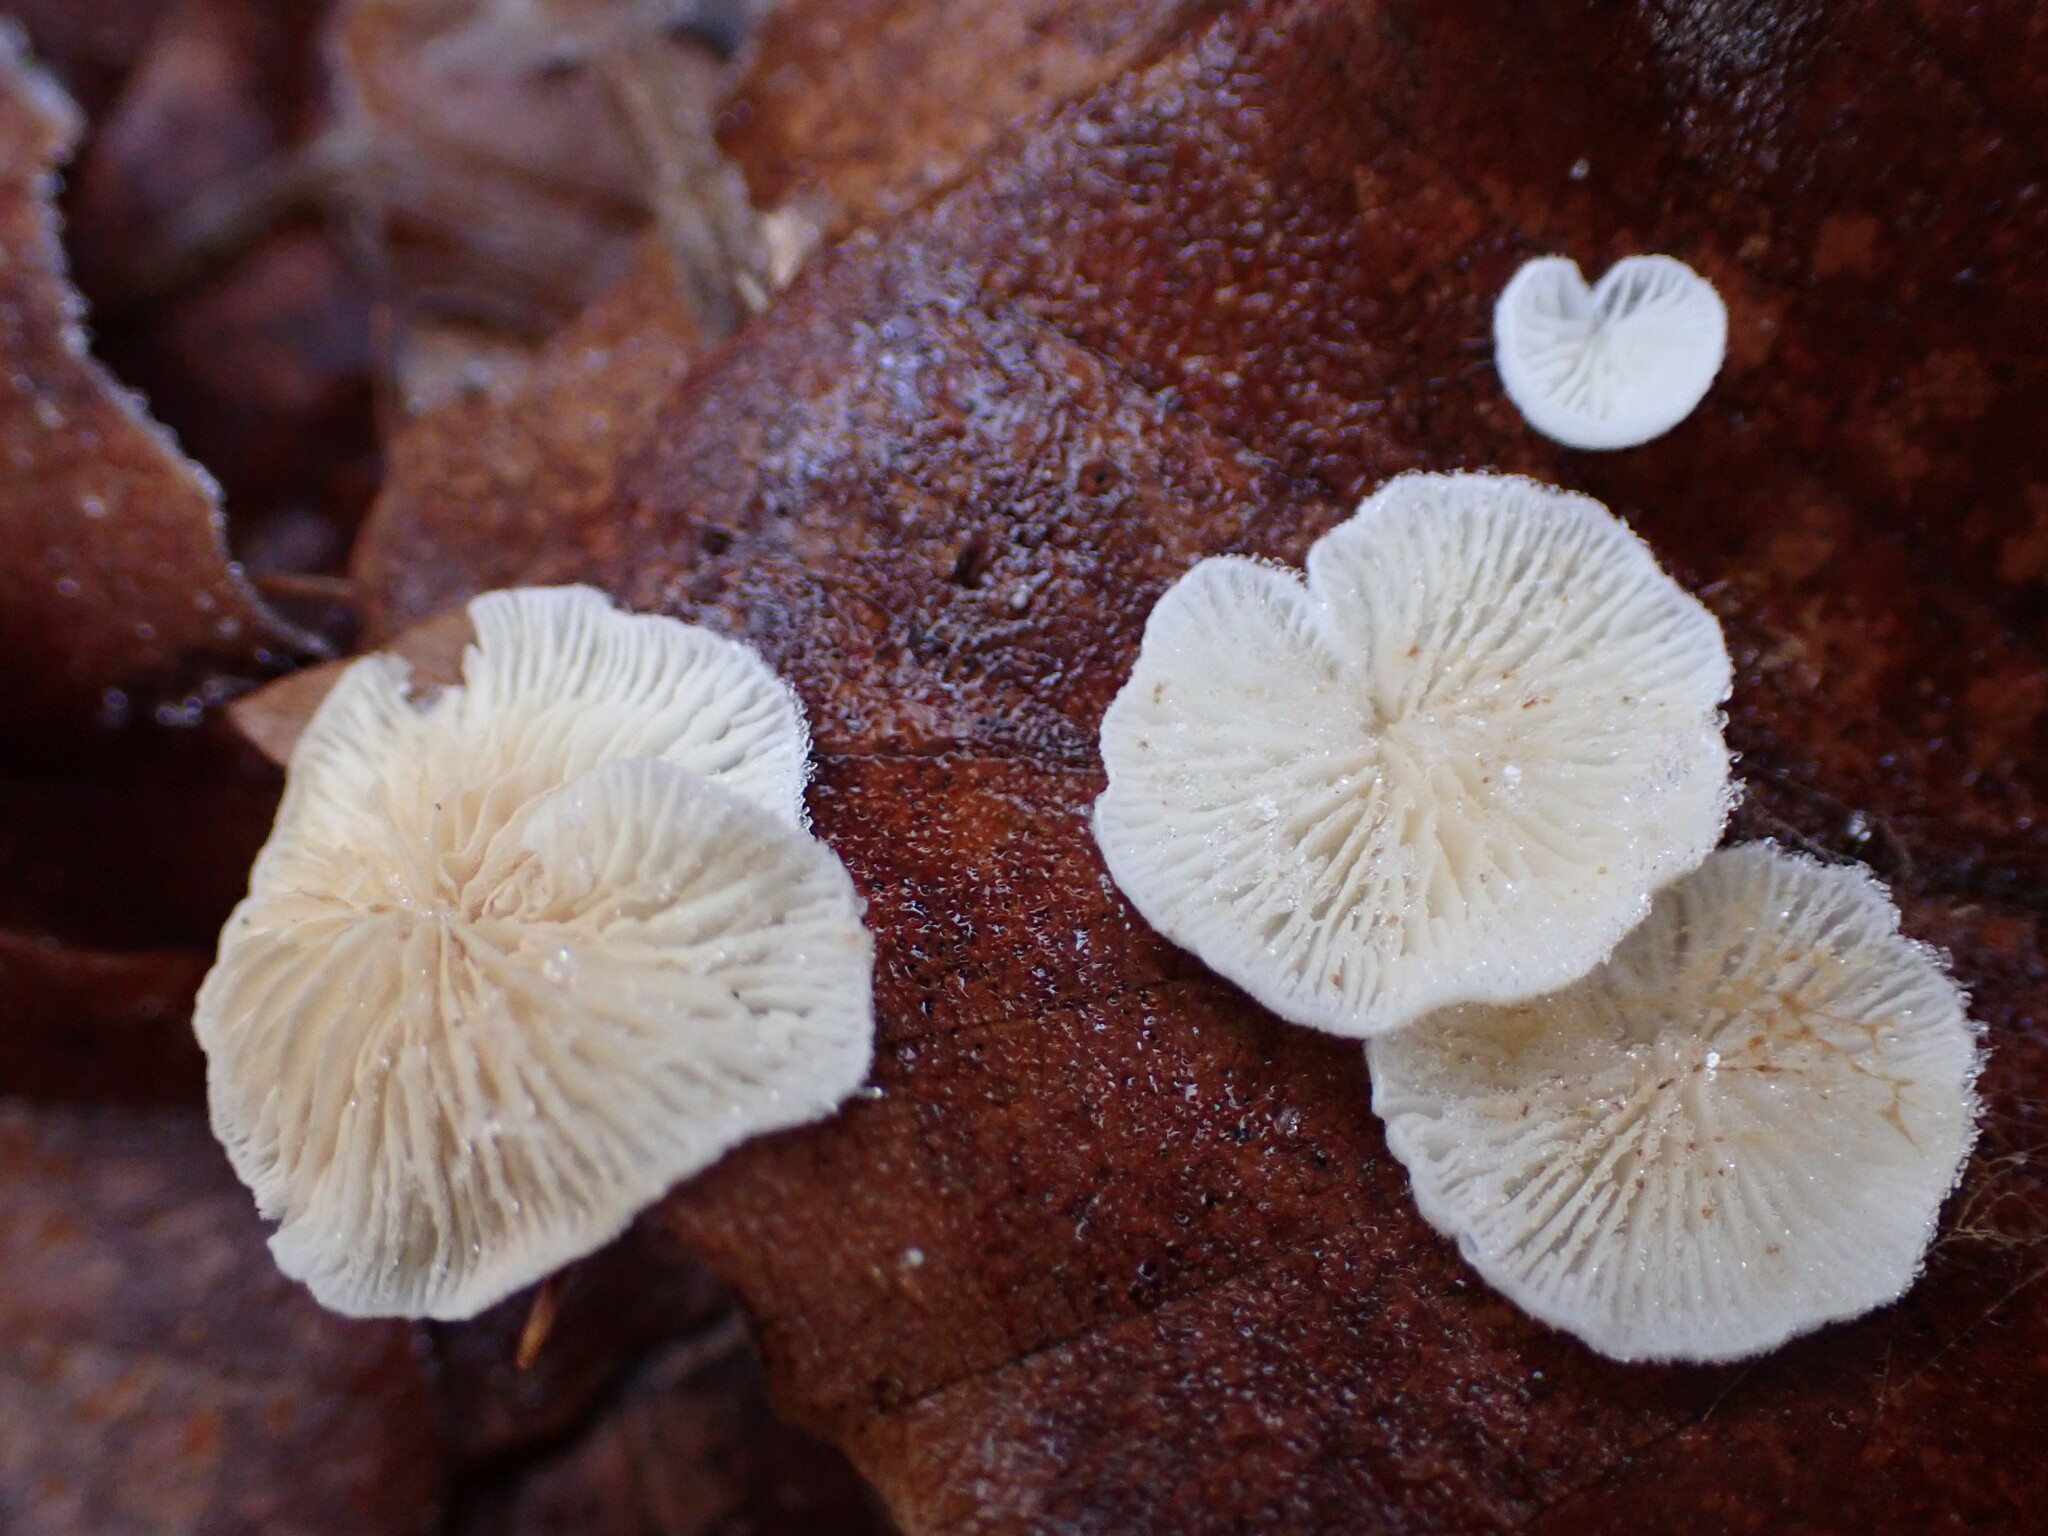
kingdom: Fungi
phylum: Basidiomycota
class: Agaricomycetes
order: Agaricales
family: Crepidotaceae
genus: Crepidotus
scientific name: Crepidotus variabilis
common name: Variable oysterling
